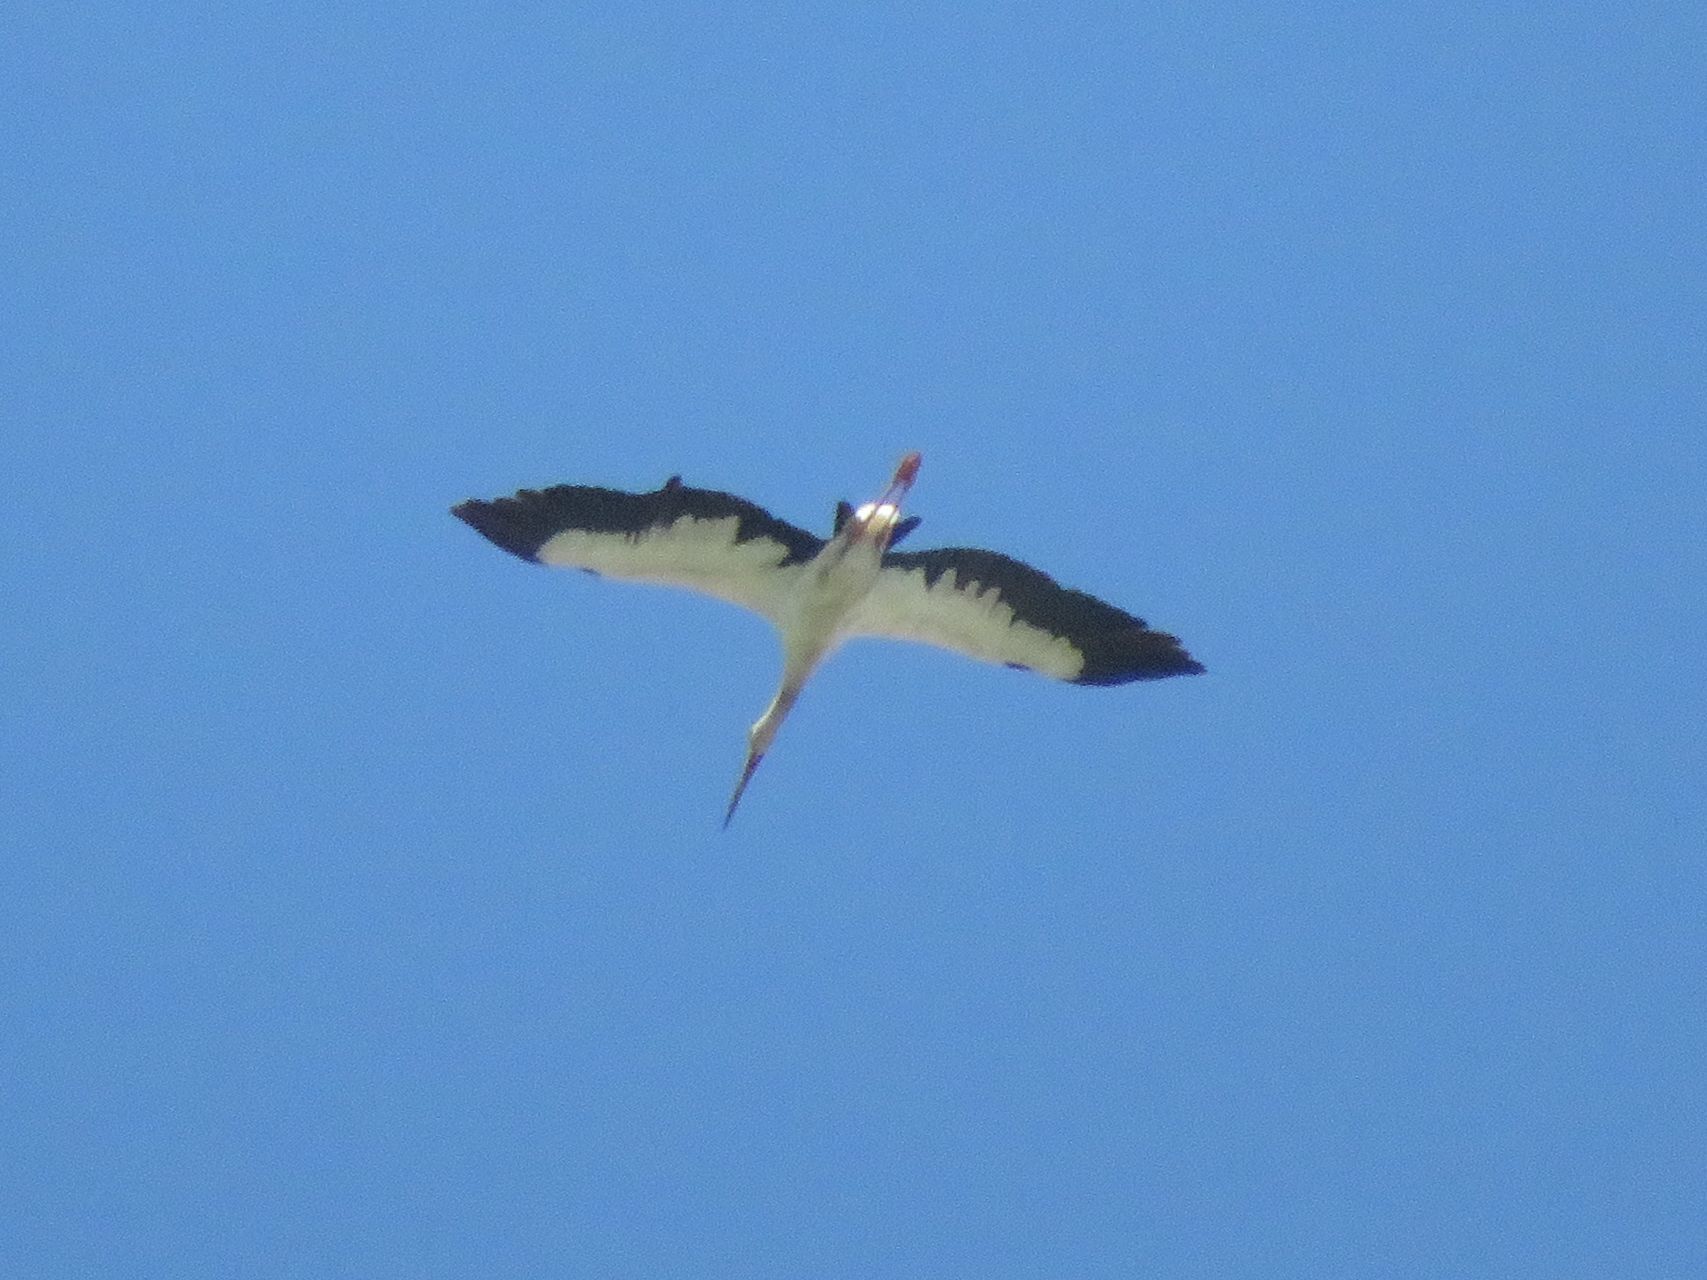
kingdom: Animalia
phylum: Chordata
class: Aves
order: Ciconiiformes
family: Ciconiidae
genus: Ciconia
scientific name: Ciconia maguari
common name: Maguari stork
